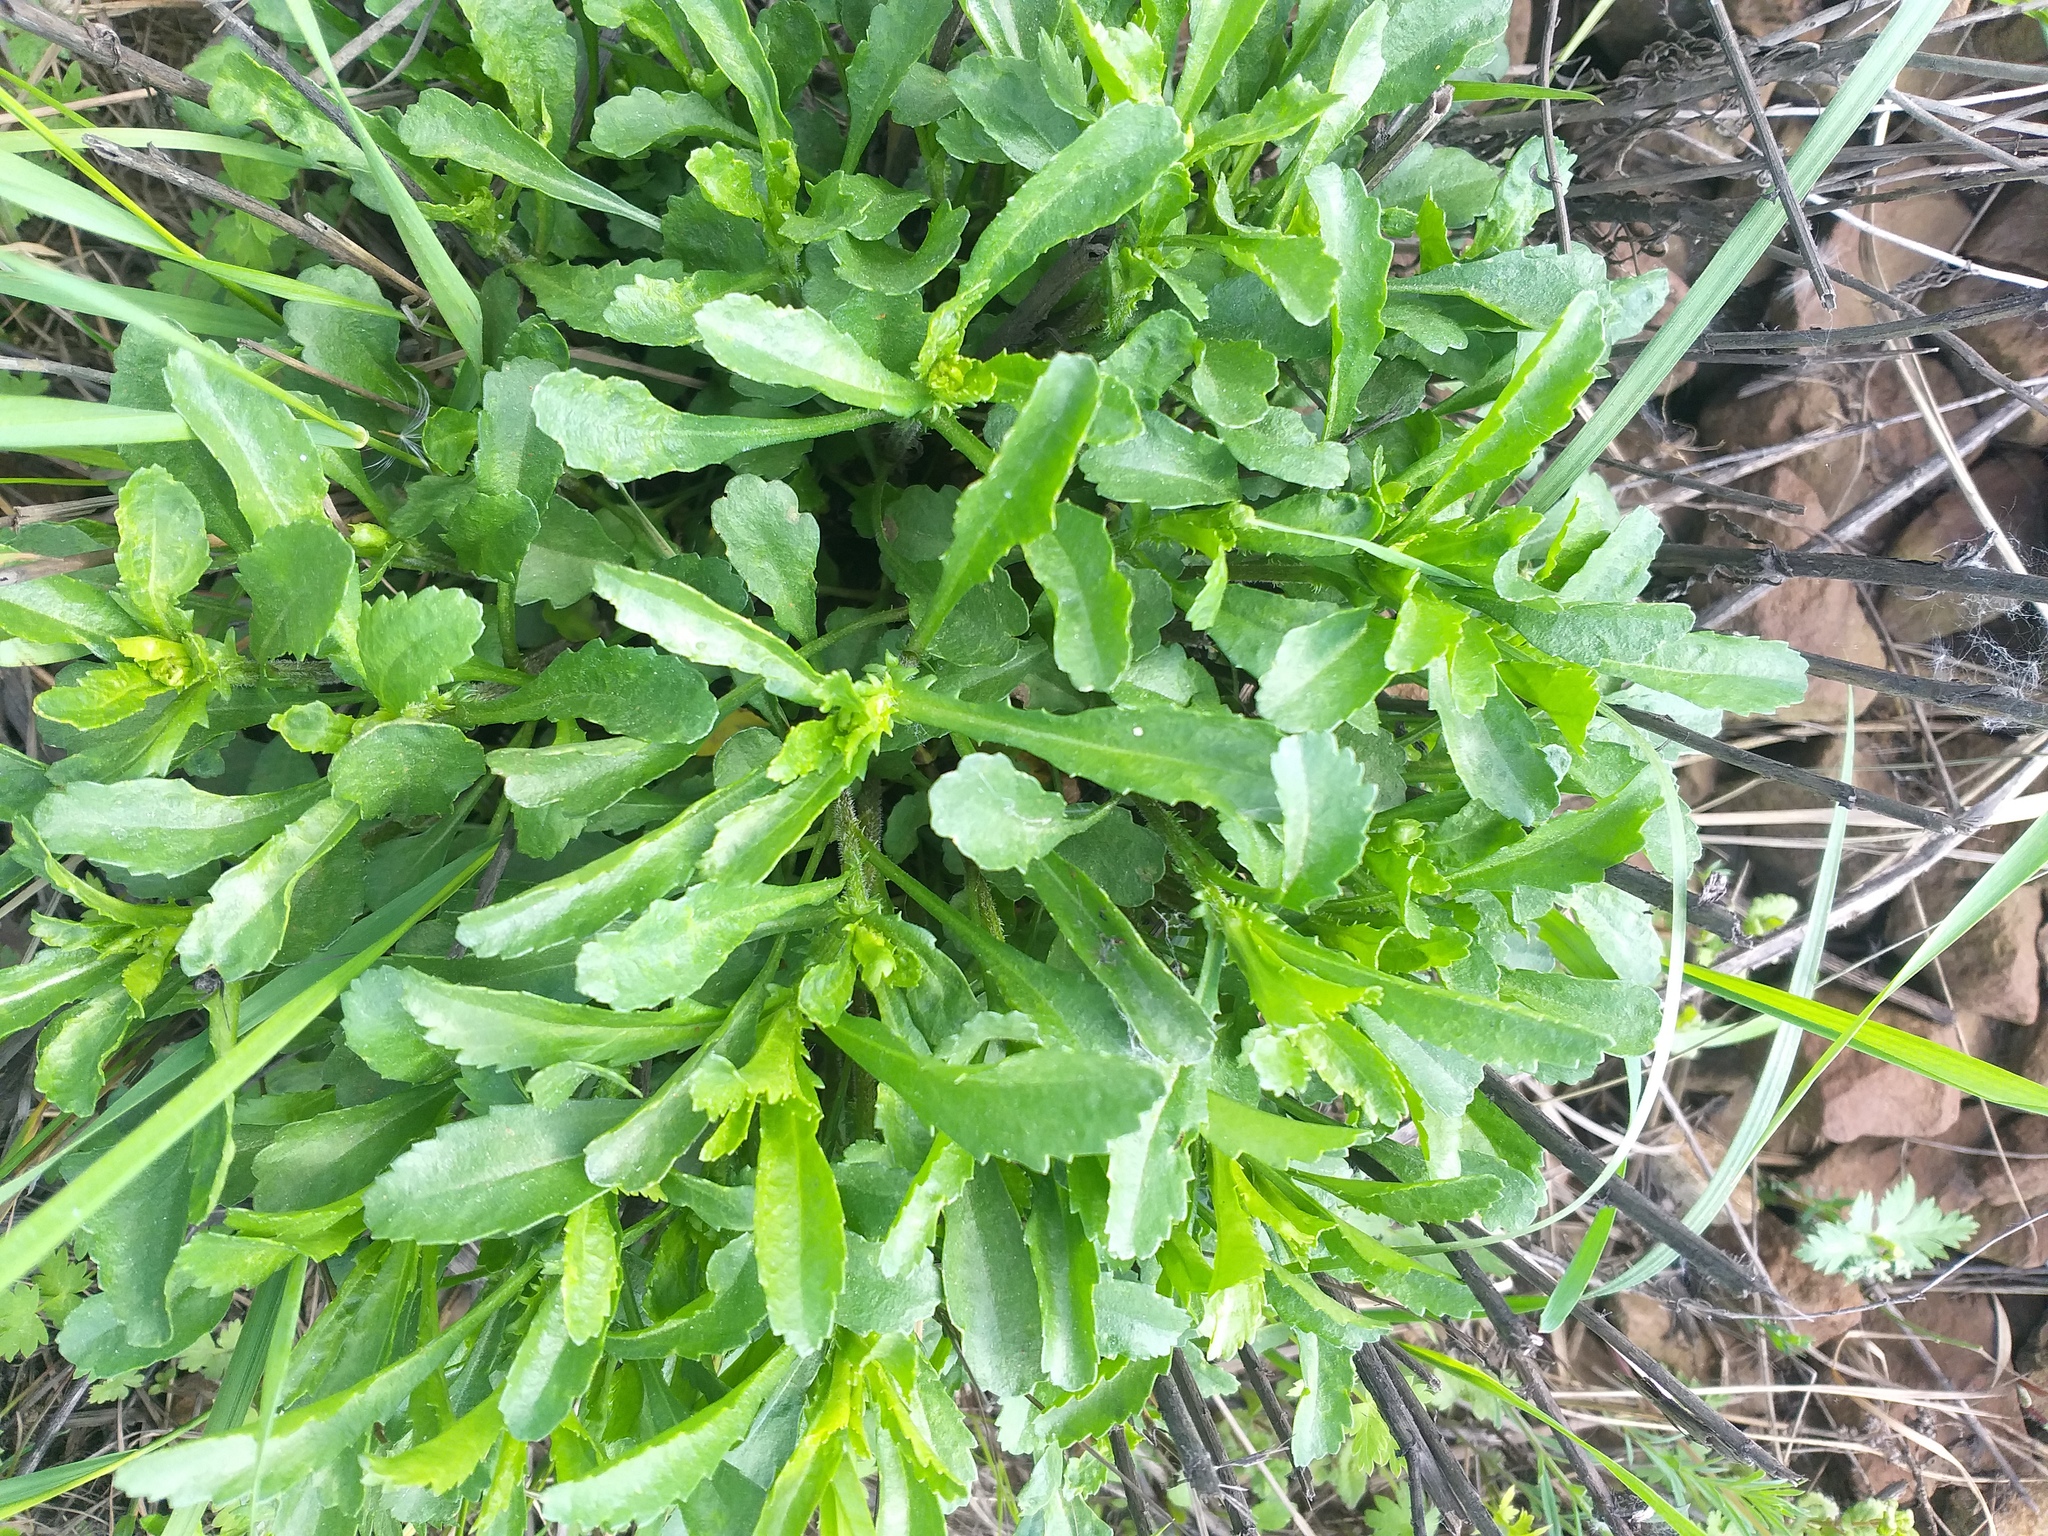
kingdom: Plantae
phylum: Tracheophyta
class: Magnoliopsida
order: Asterales
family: Asteraceae
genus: Leucanthemum
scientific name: Leucanthemum vulgare
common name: Oxeye daisy
